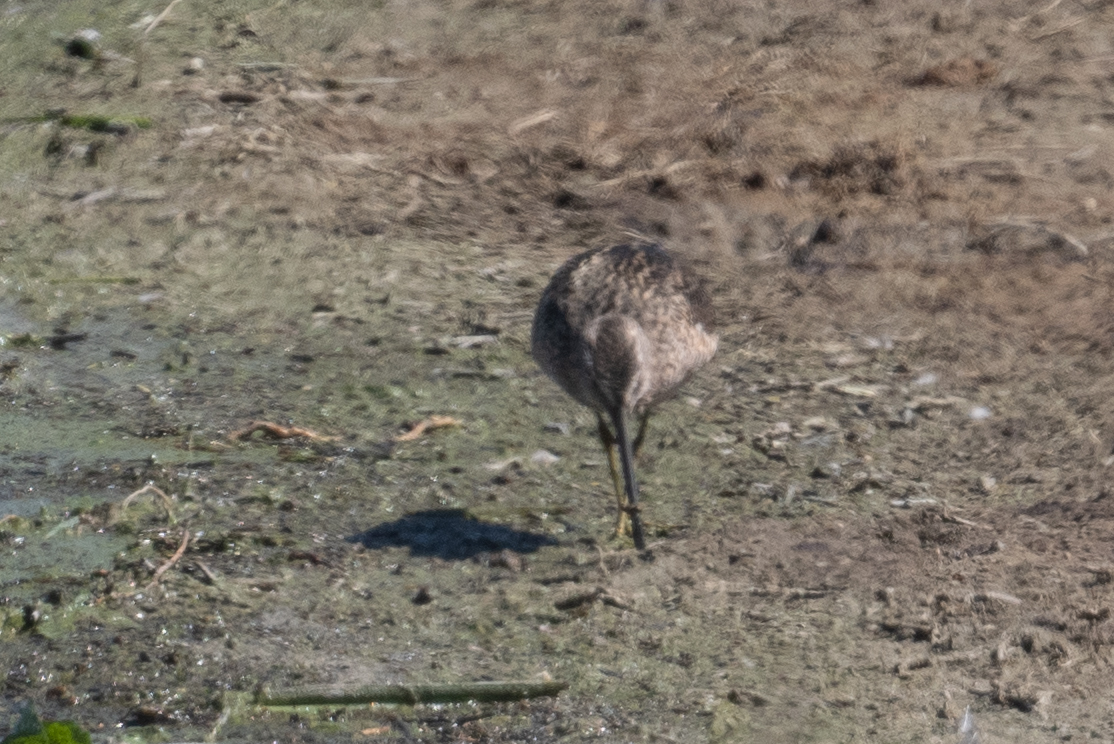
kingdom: Animalia
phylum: Chordata
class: Aves
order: Charadriiformes
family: Scolopacidae
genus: Limnodromus
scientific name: Limnodromus
